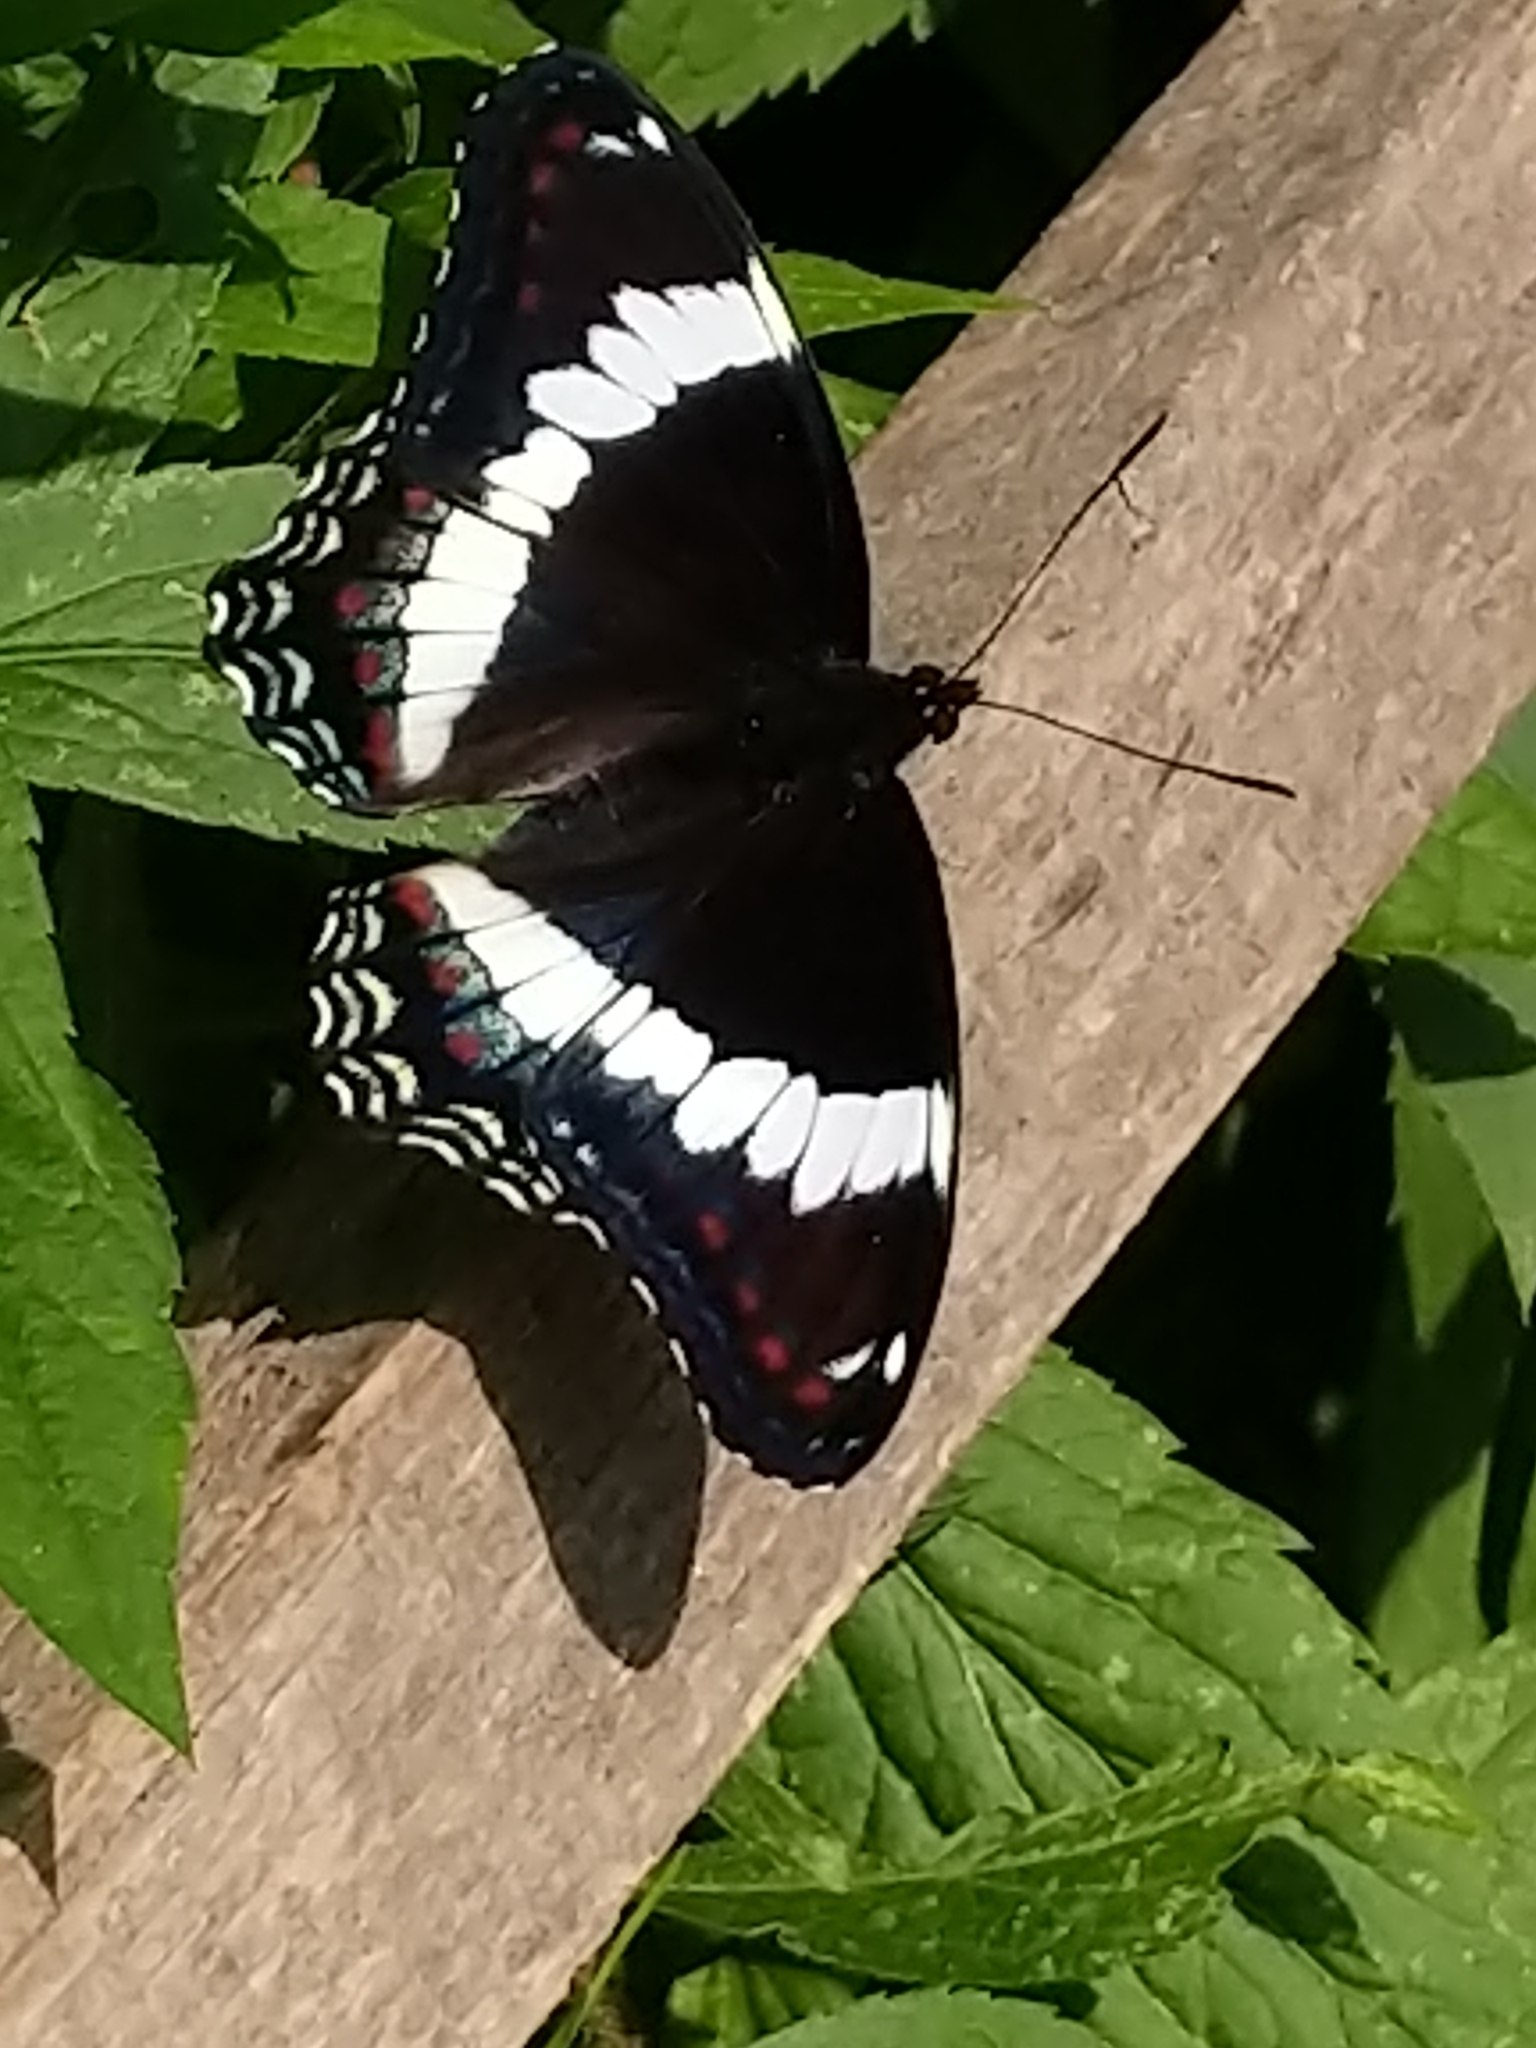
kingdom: Animalia
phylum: Arthropoda
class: Insecta
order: Lepidoptera
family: Nymphalidae
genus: Limenitis
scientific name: Limenitis arthemis
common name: Red-spotted admiral
